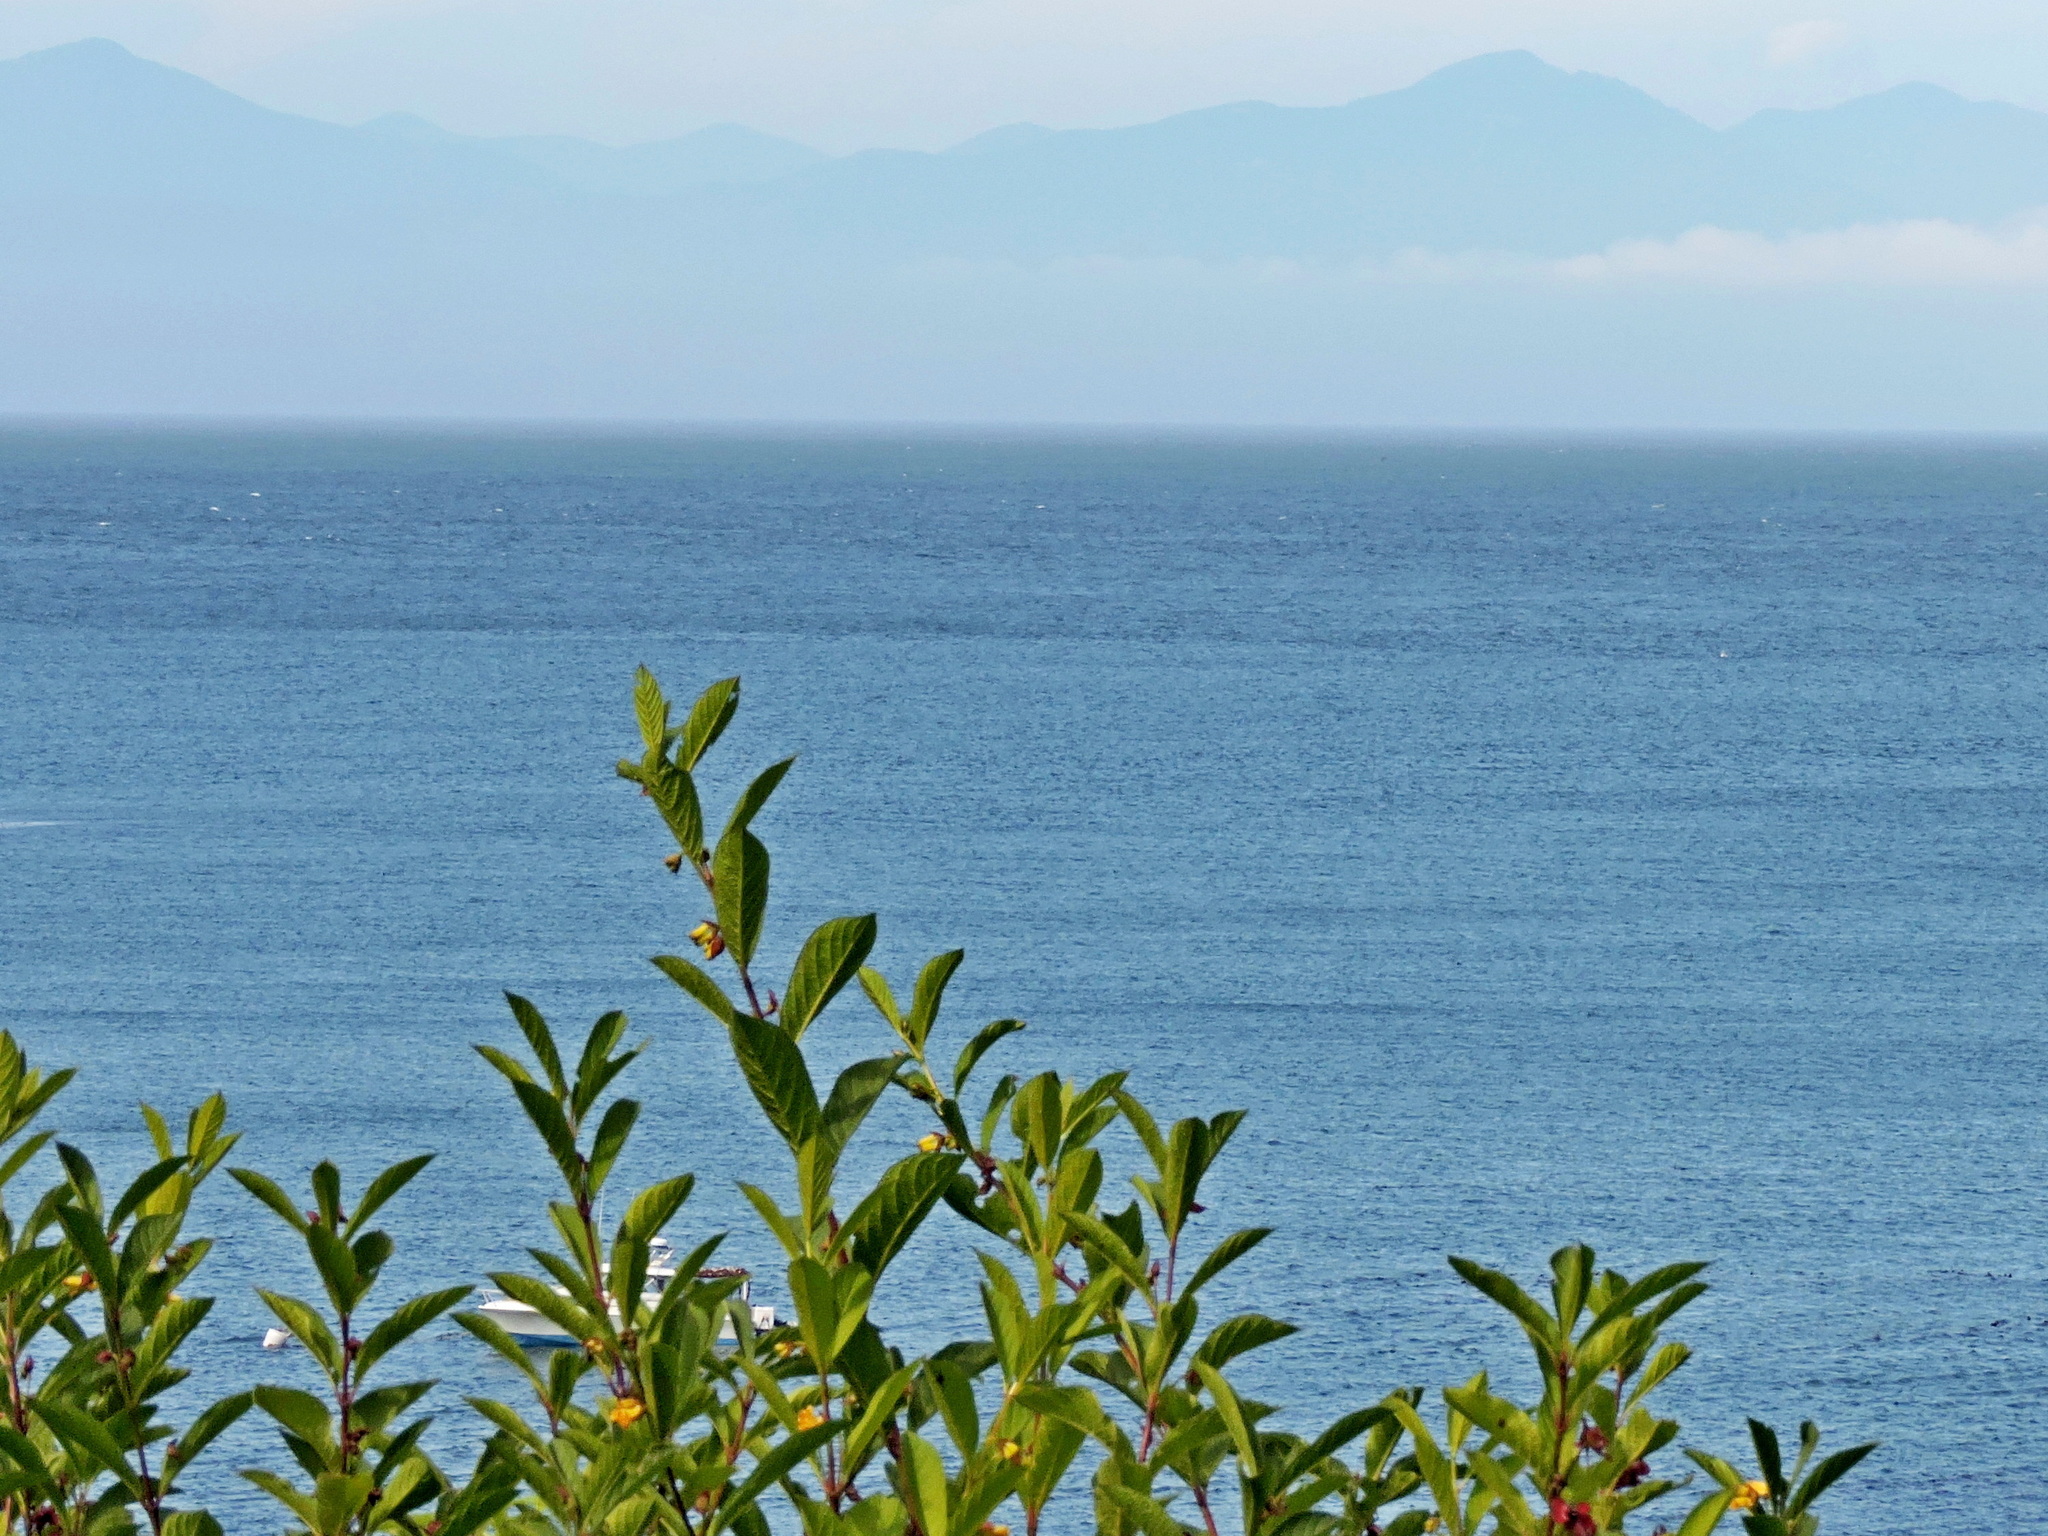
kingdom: Plantae
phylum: Tracheophyta
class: Magnoliopsida
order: Dipsacales
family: Caprifoliaceae
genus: Lonicera
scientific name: Lonicera involucrata
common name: Californian honeysuckle
